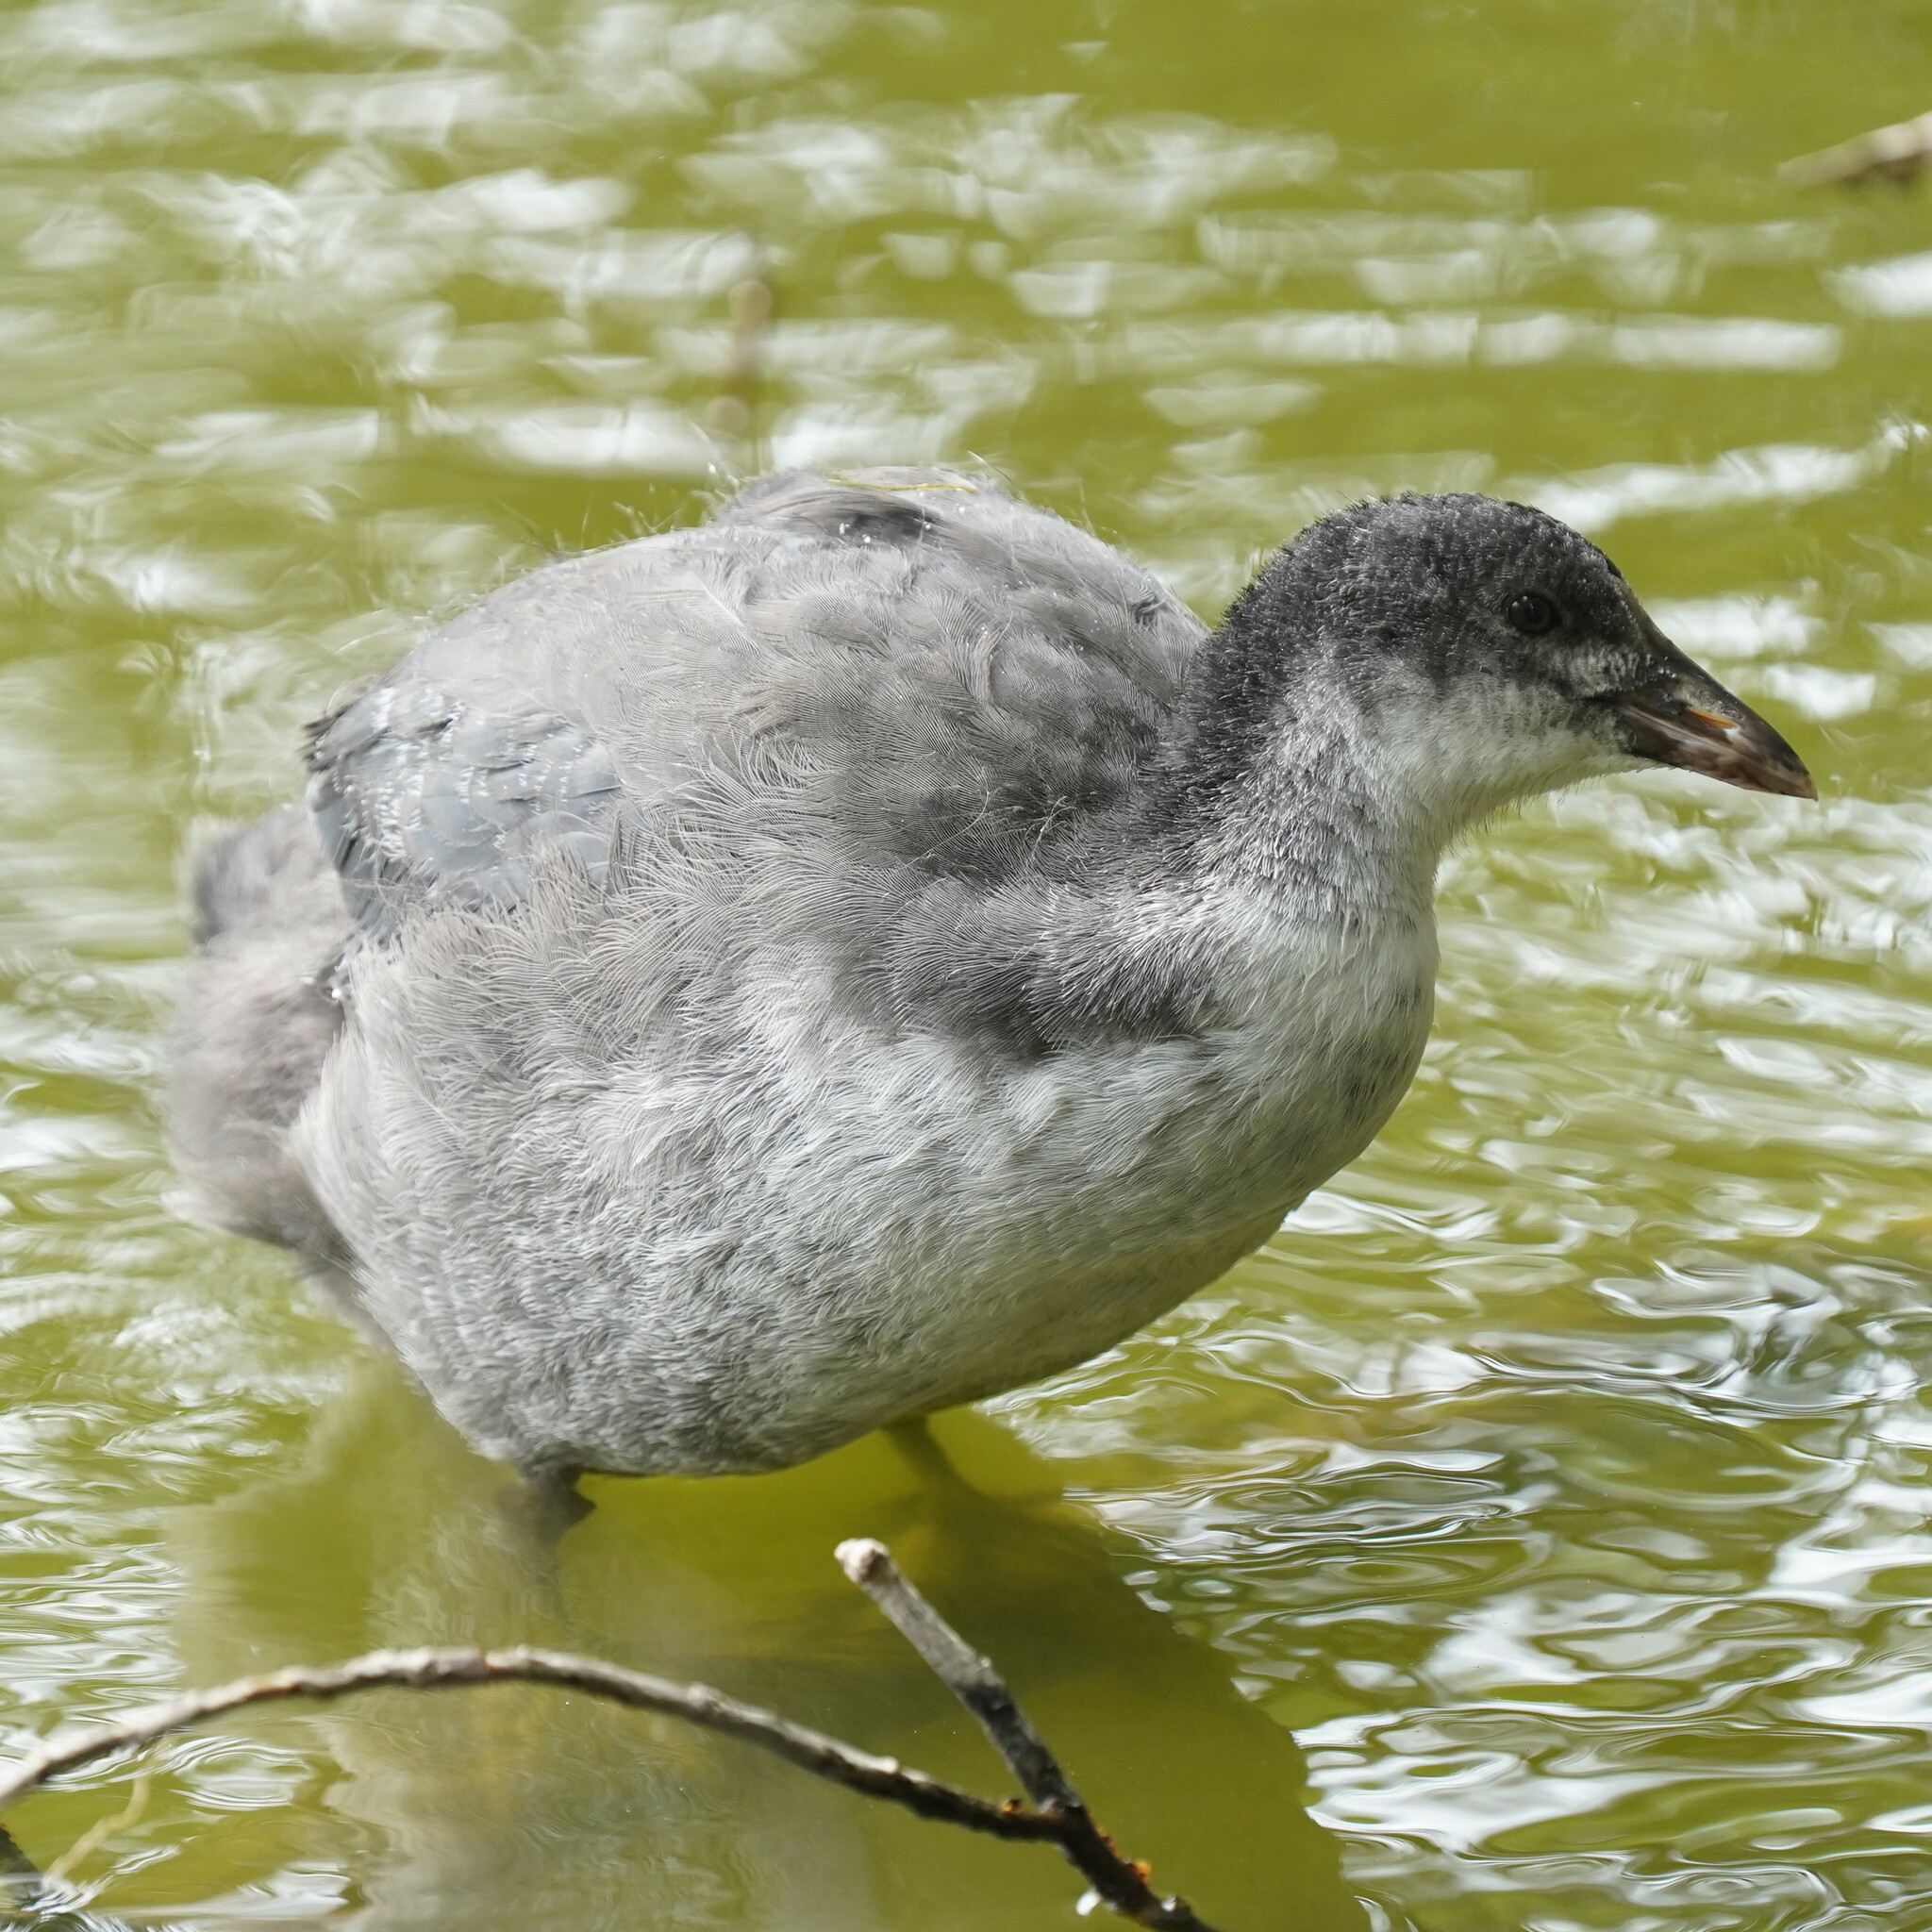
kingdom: Animalia
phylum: Chordata
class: Aves
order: Gruiformes
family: Rallidae
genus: Fulica
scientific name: Fulica atra
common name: Eurasian coot
